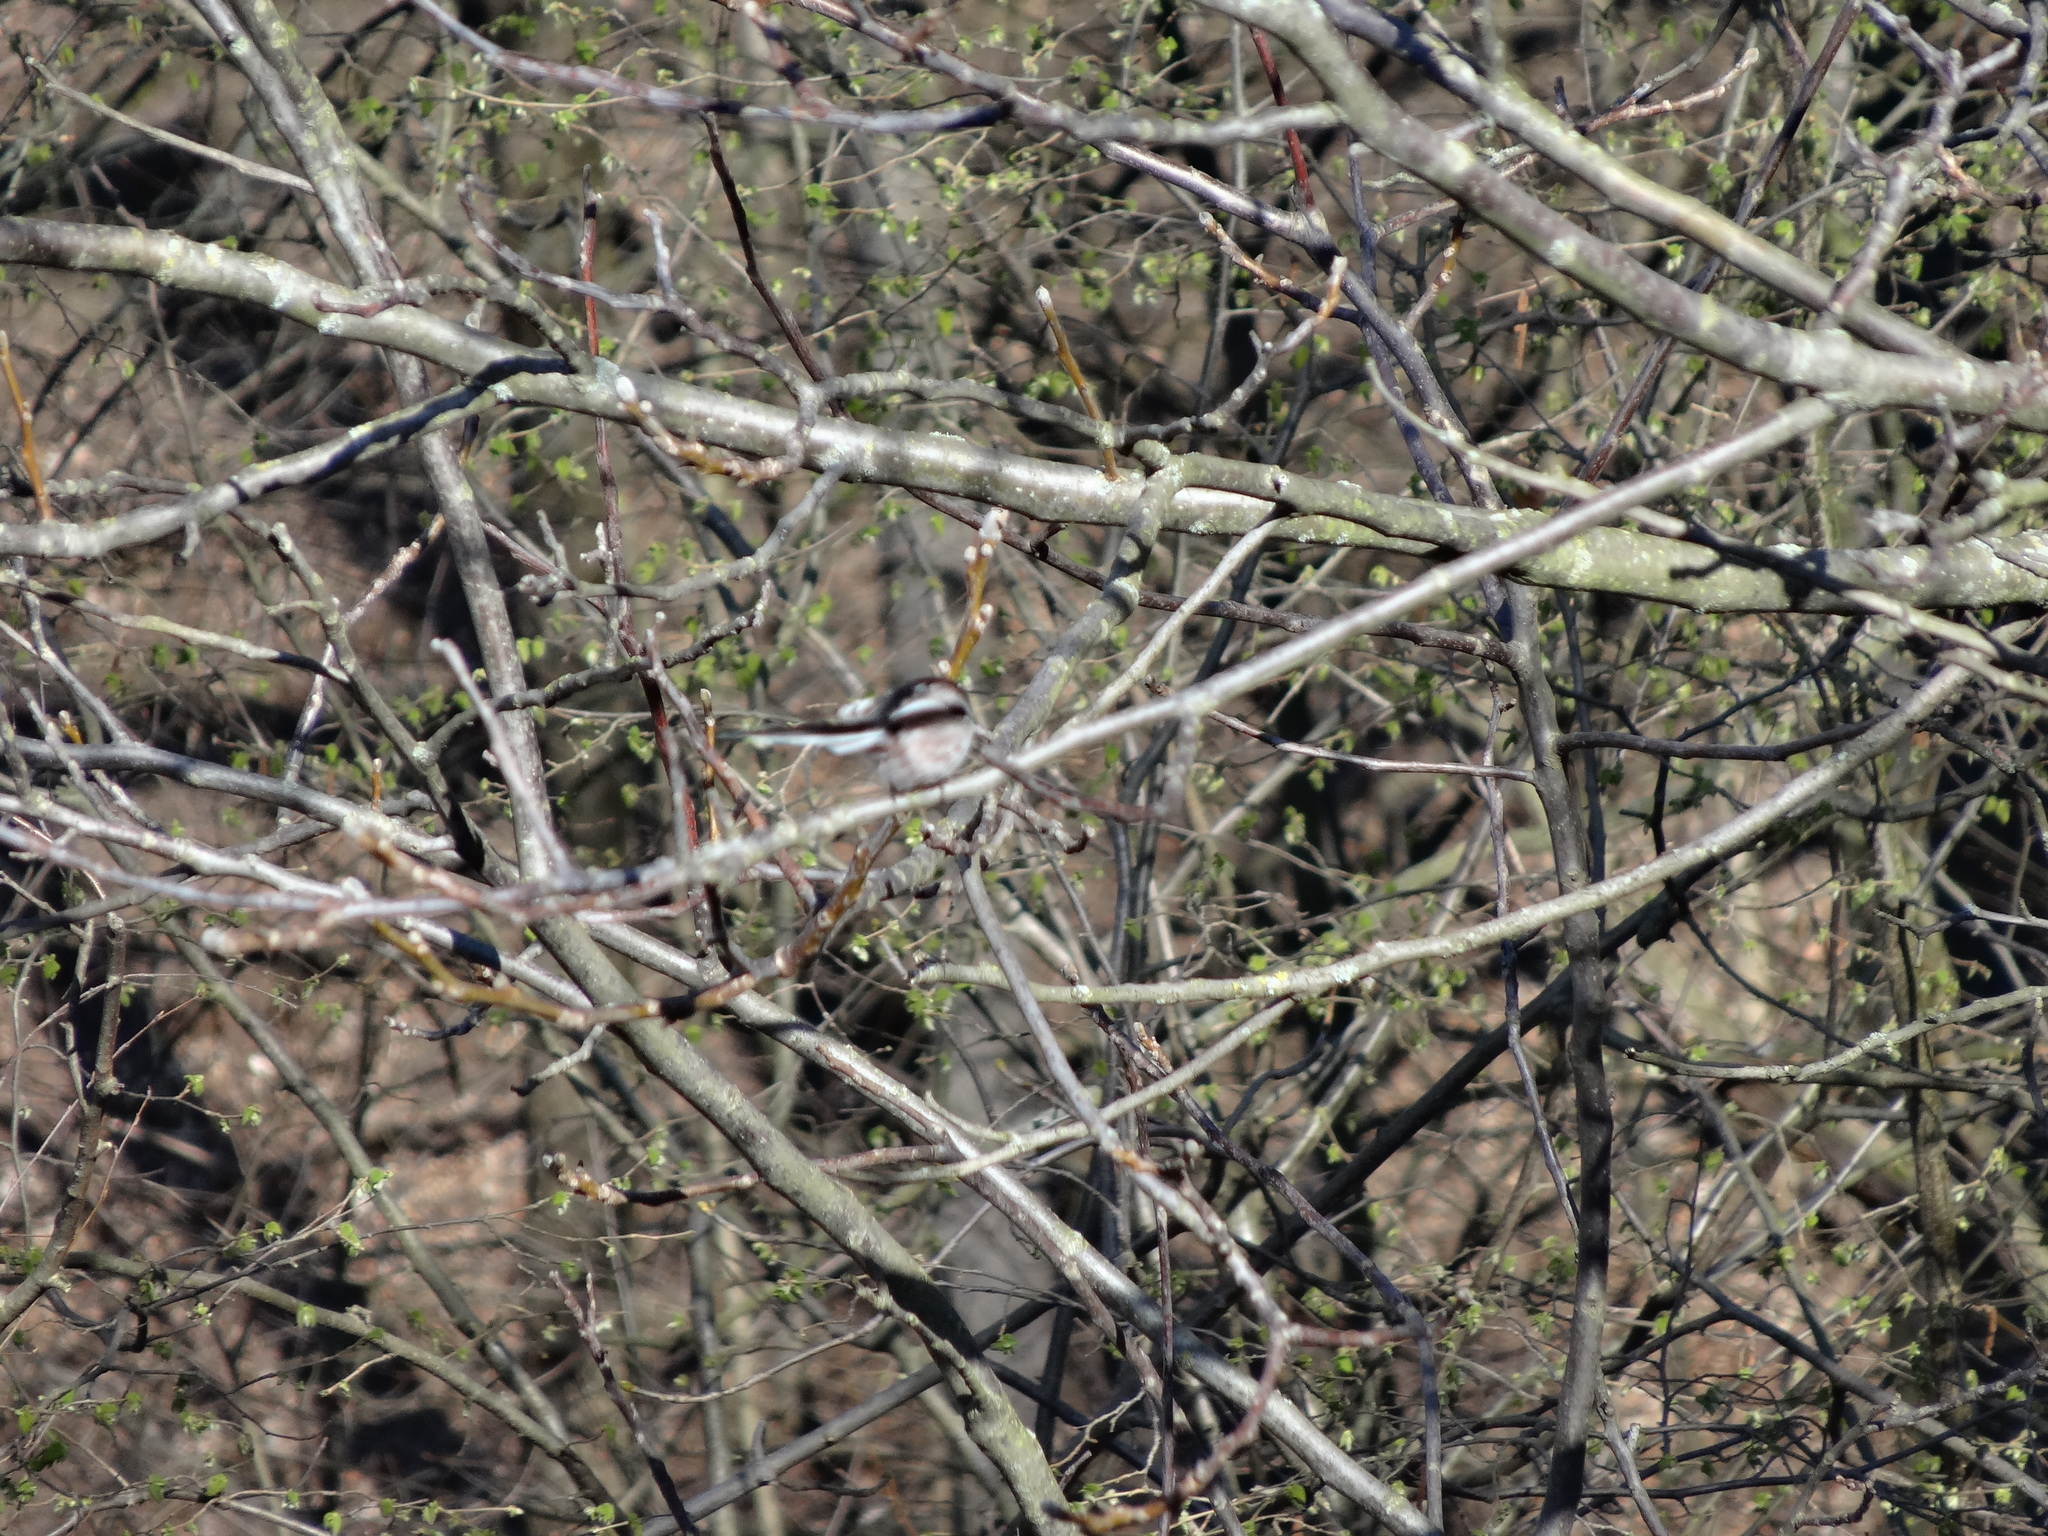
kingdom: Animalia
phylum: Chordata
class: Aves
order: Passeriformes
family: Aegithalidae
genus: Aegithalos
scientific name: Aegithalos caudatus
